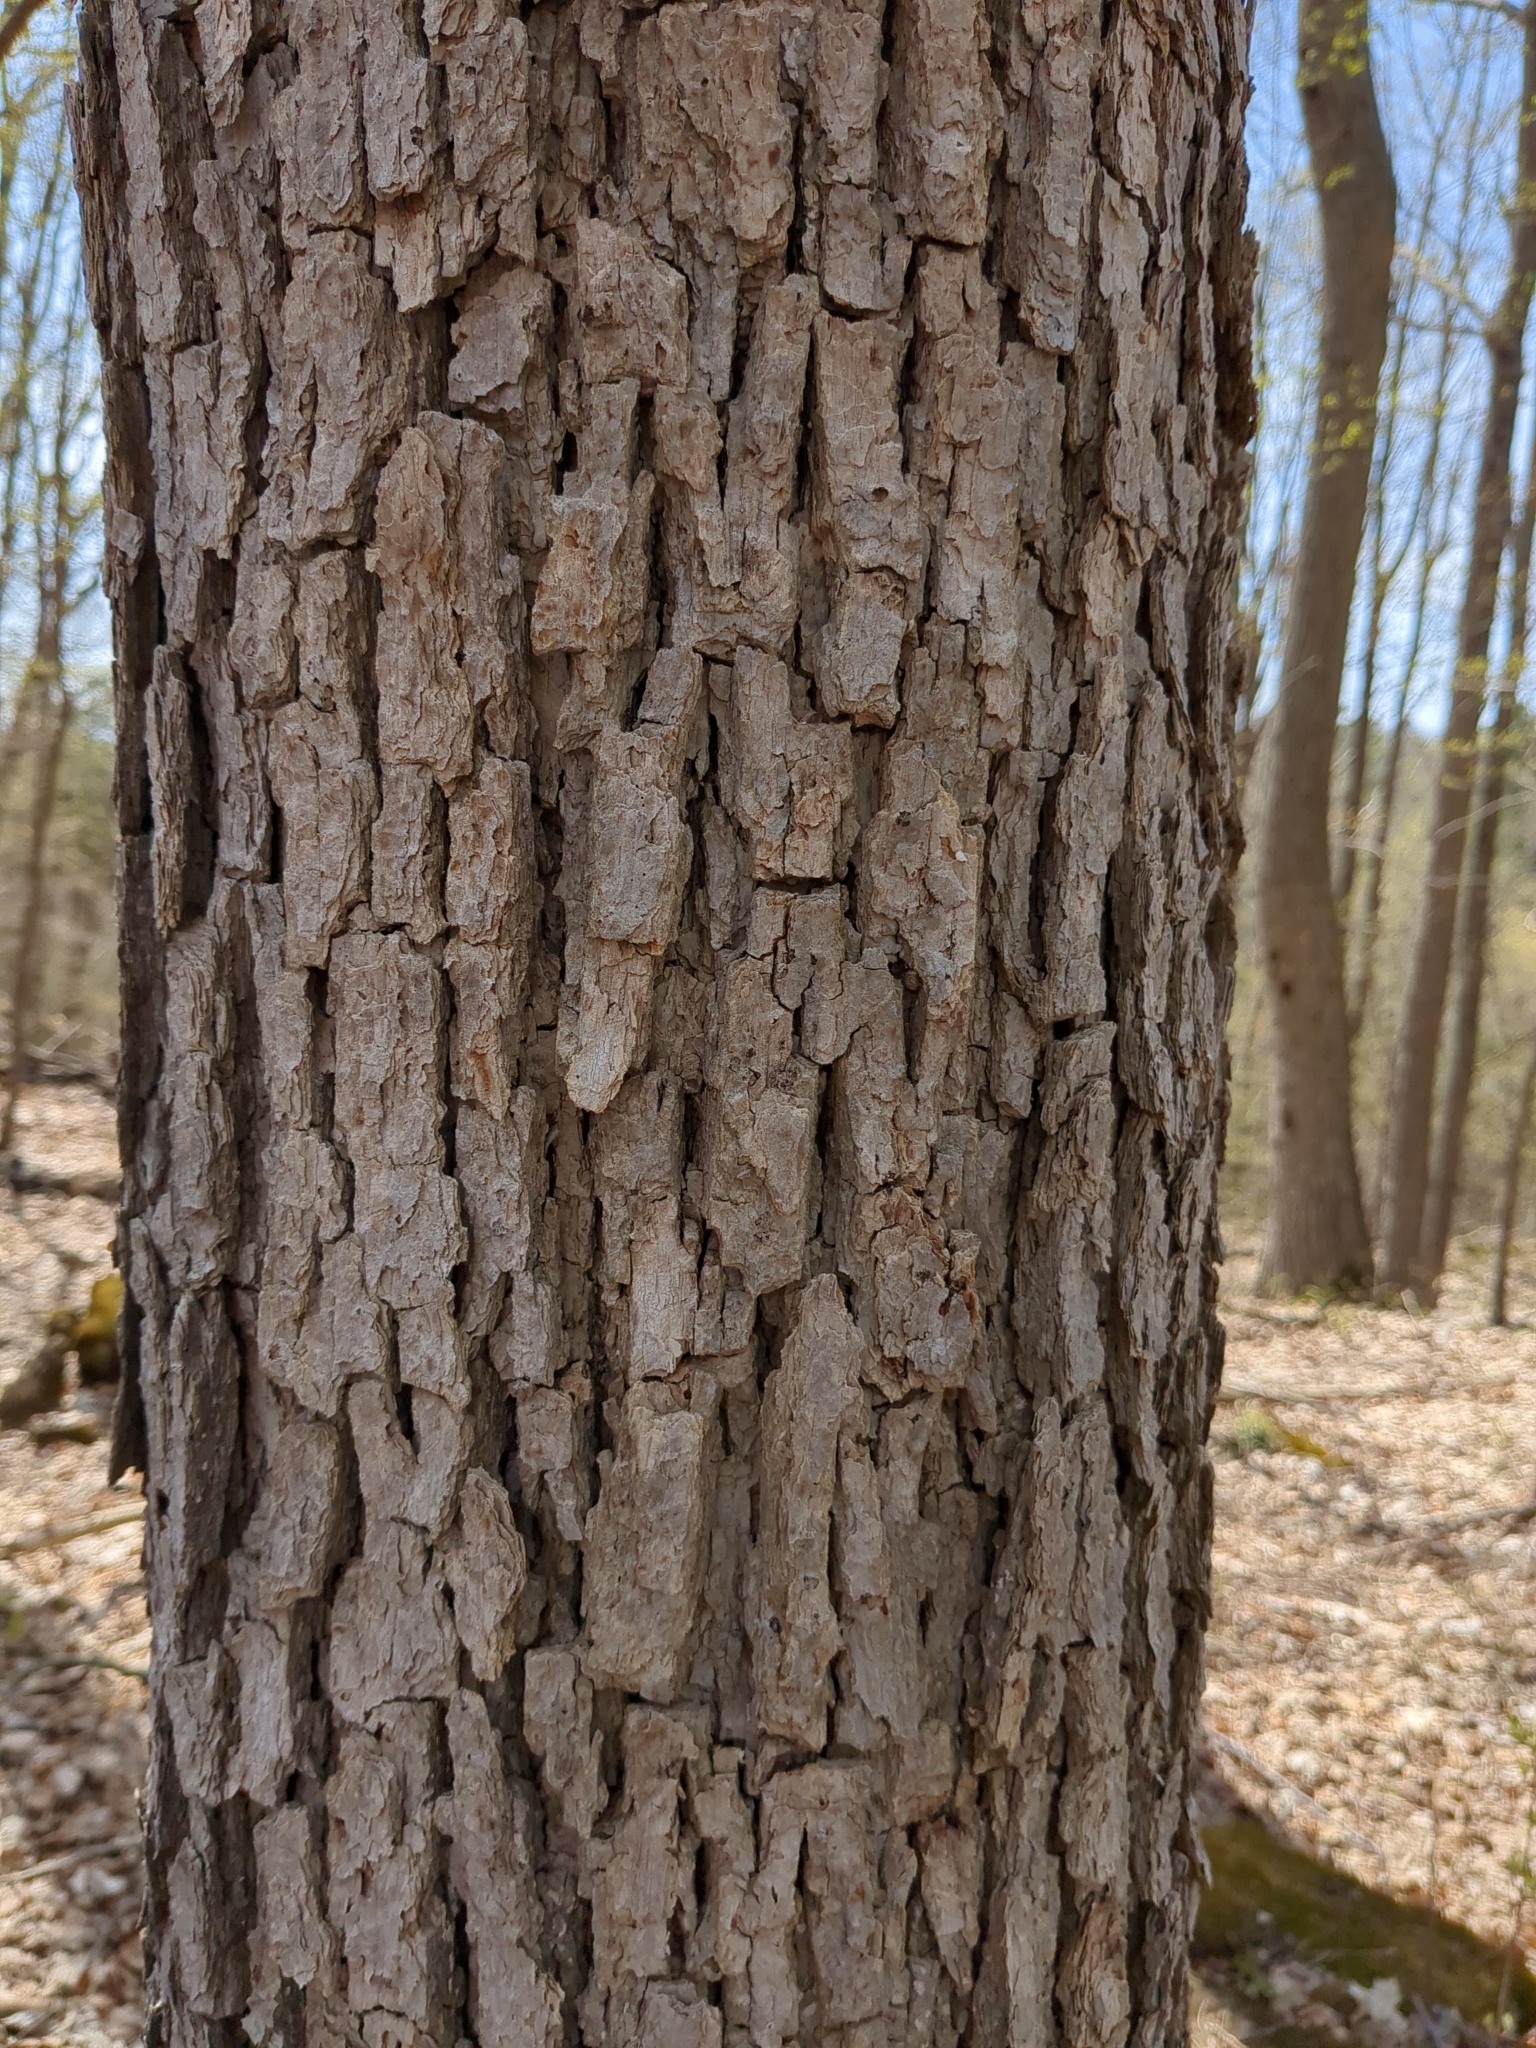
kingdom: Plantae
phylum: Tracheophyta
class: Magnoliopsida
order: Fagales
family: Fagaceae
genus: Quercus
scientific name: Quercus muehlenbergii
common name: Chinkapin oak
